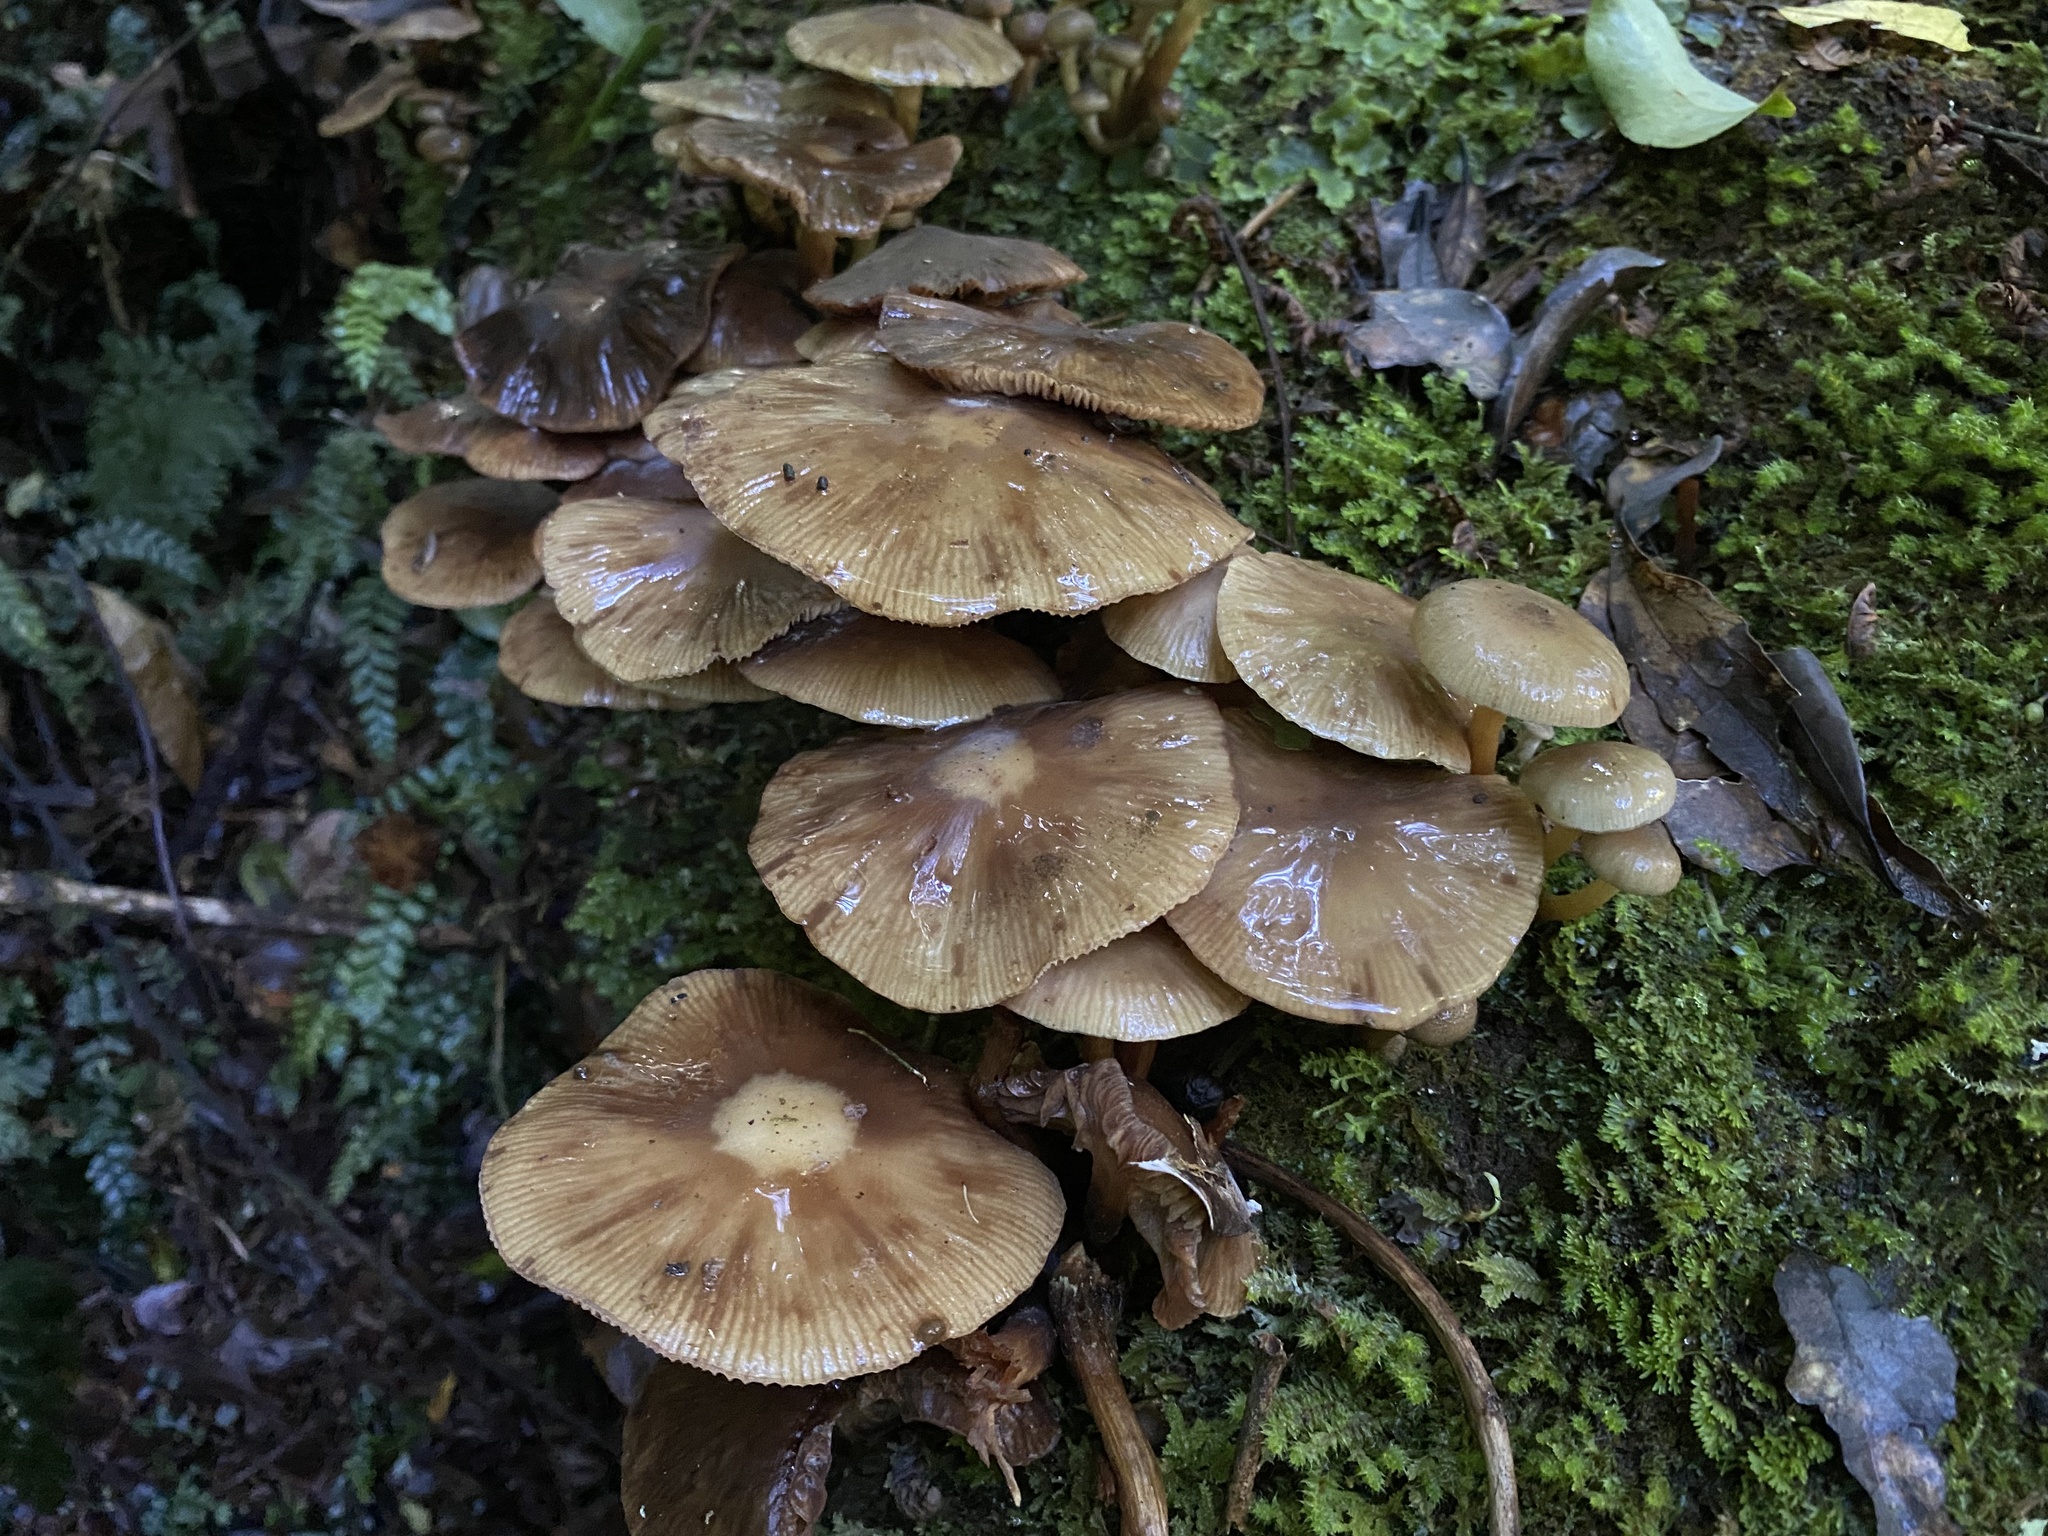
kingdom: Fungi
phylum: Basidiomycota
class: Agaricomycetes
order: Agaricales
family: Physalacriaceae
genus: Armillaria
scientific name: Armillaria novae-zelandiae
